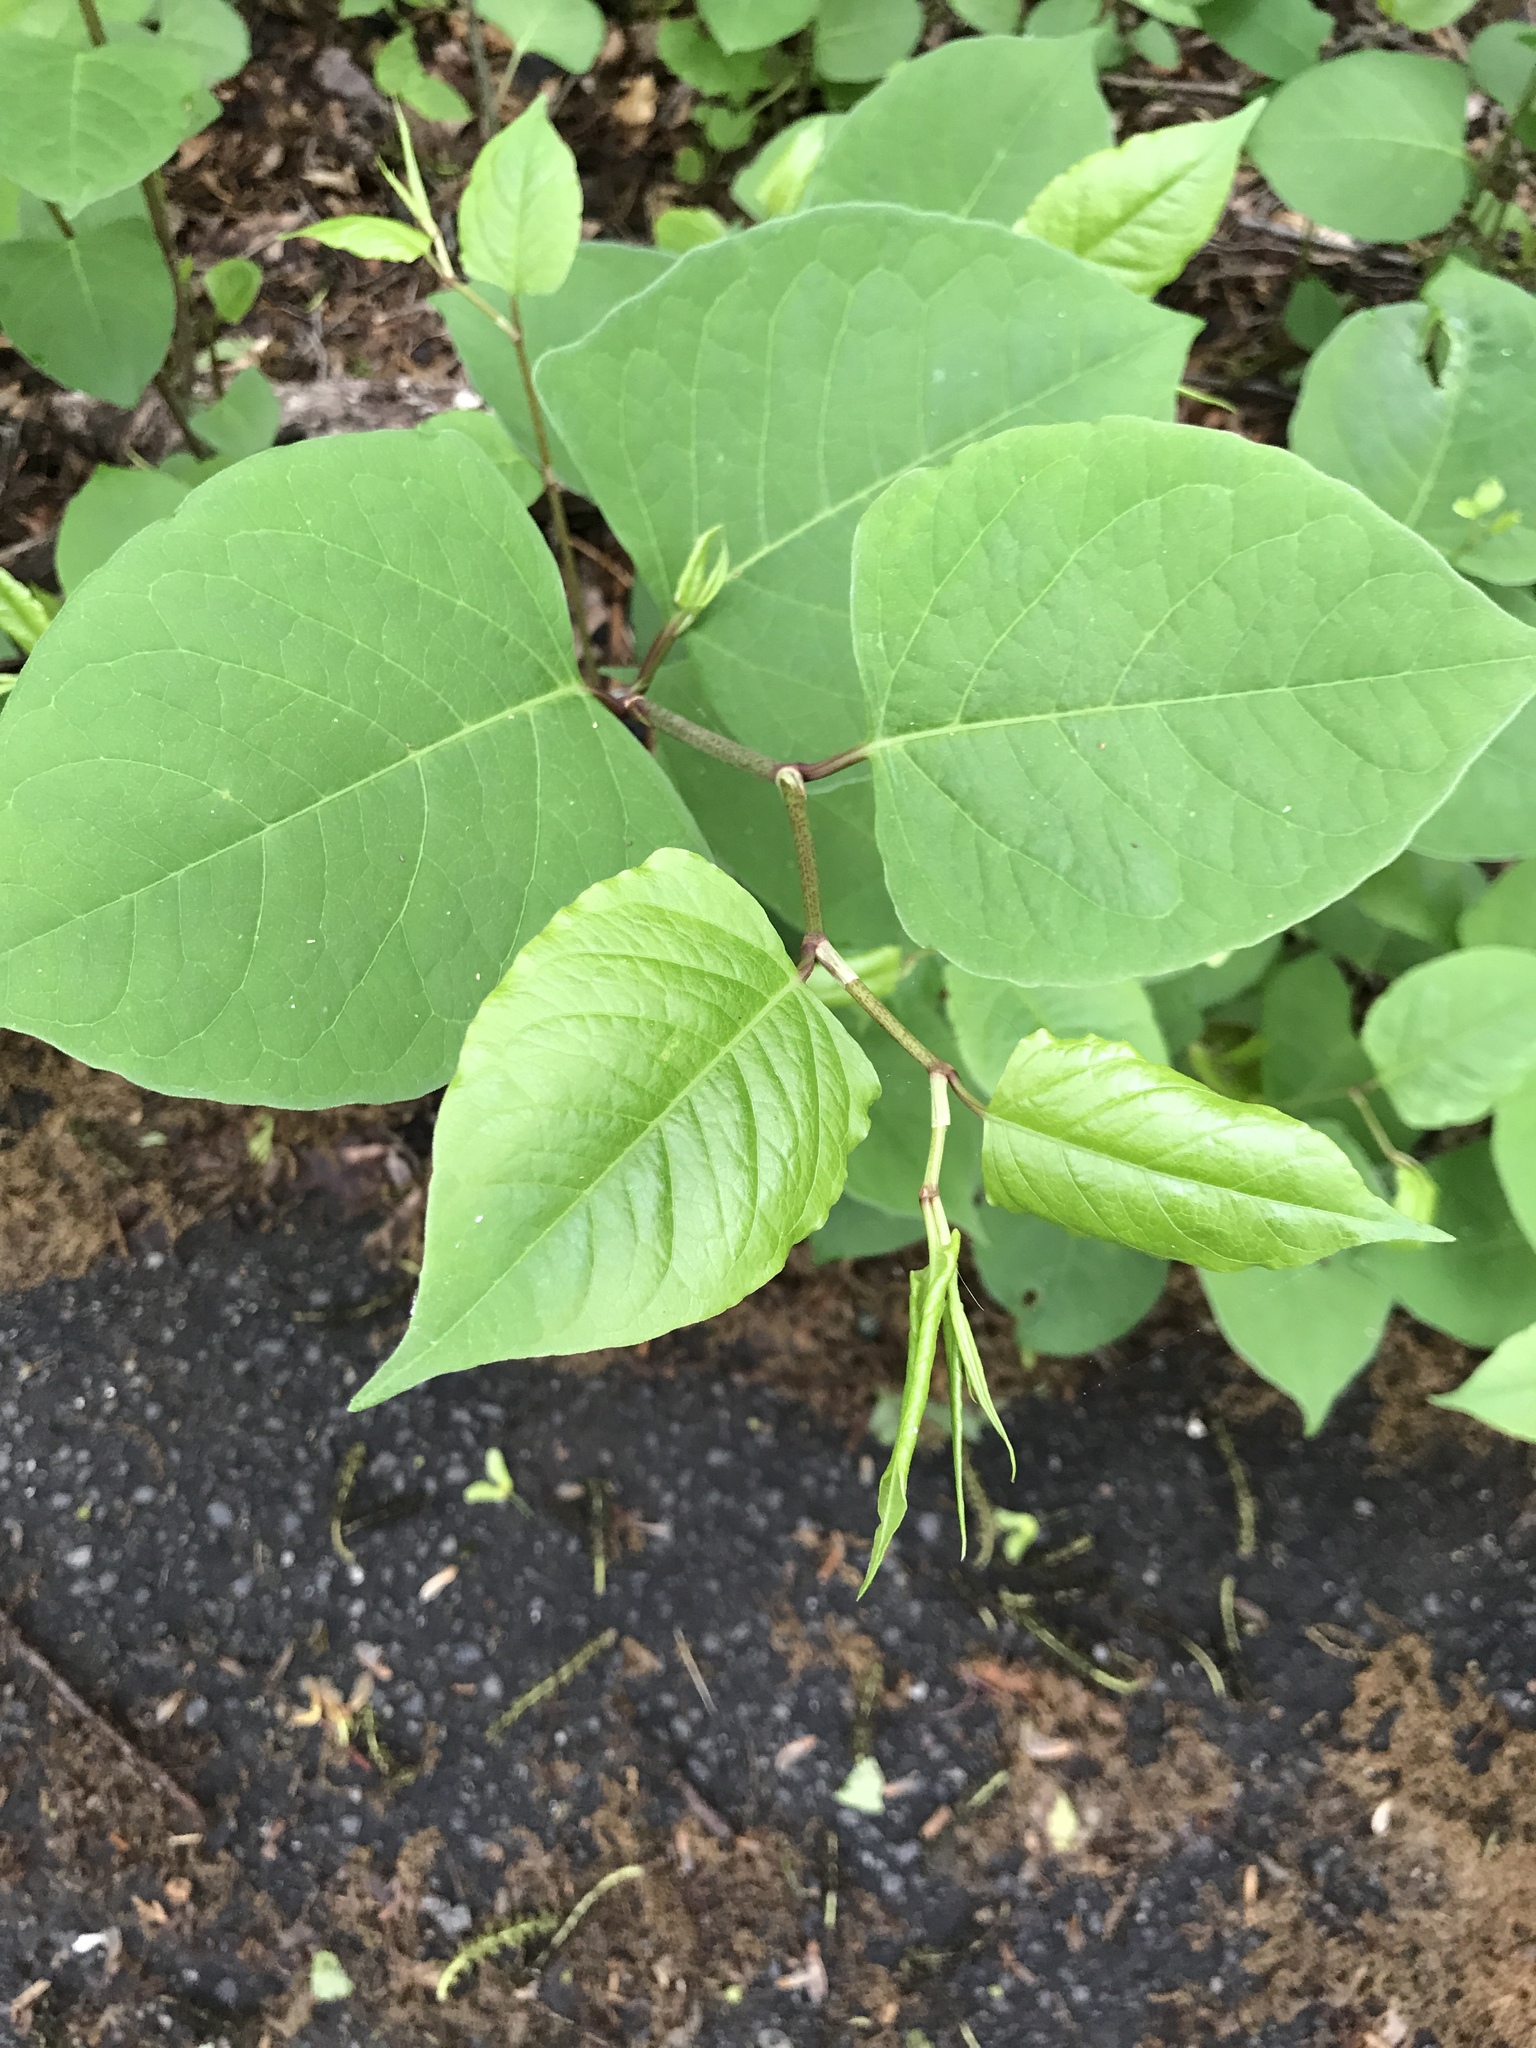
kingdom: Plantae
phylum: Tracheophyta
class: Magnoliopsida
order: Caryophyllales
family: Polygonaceae
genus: Reynoutria
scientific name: Reynoutria japonica
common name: Japanese knotweed
